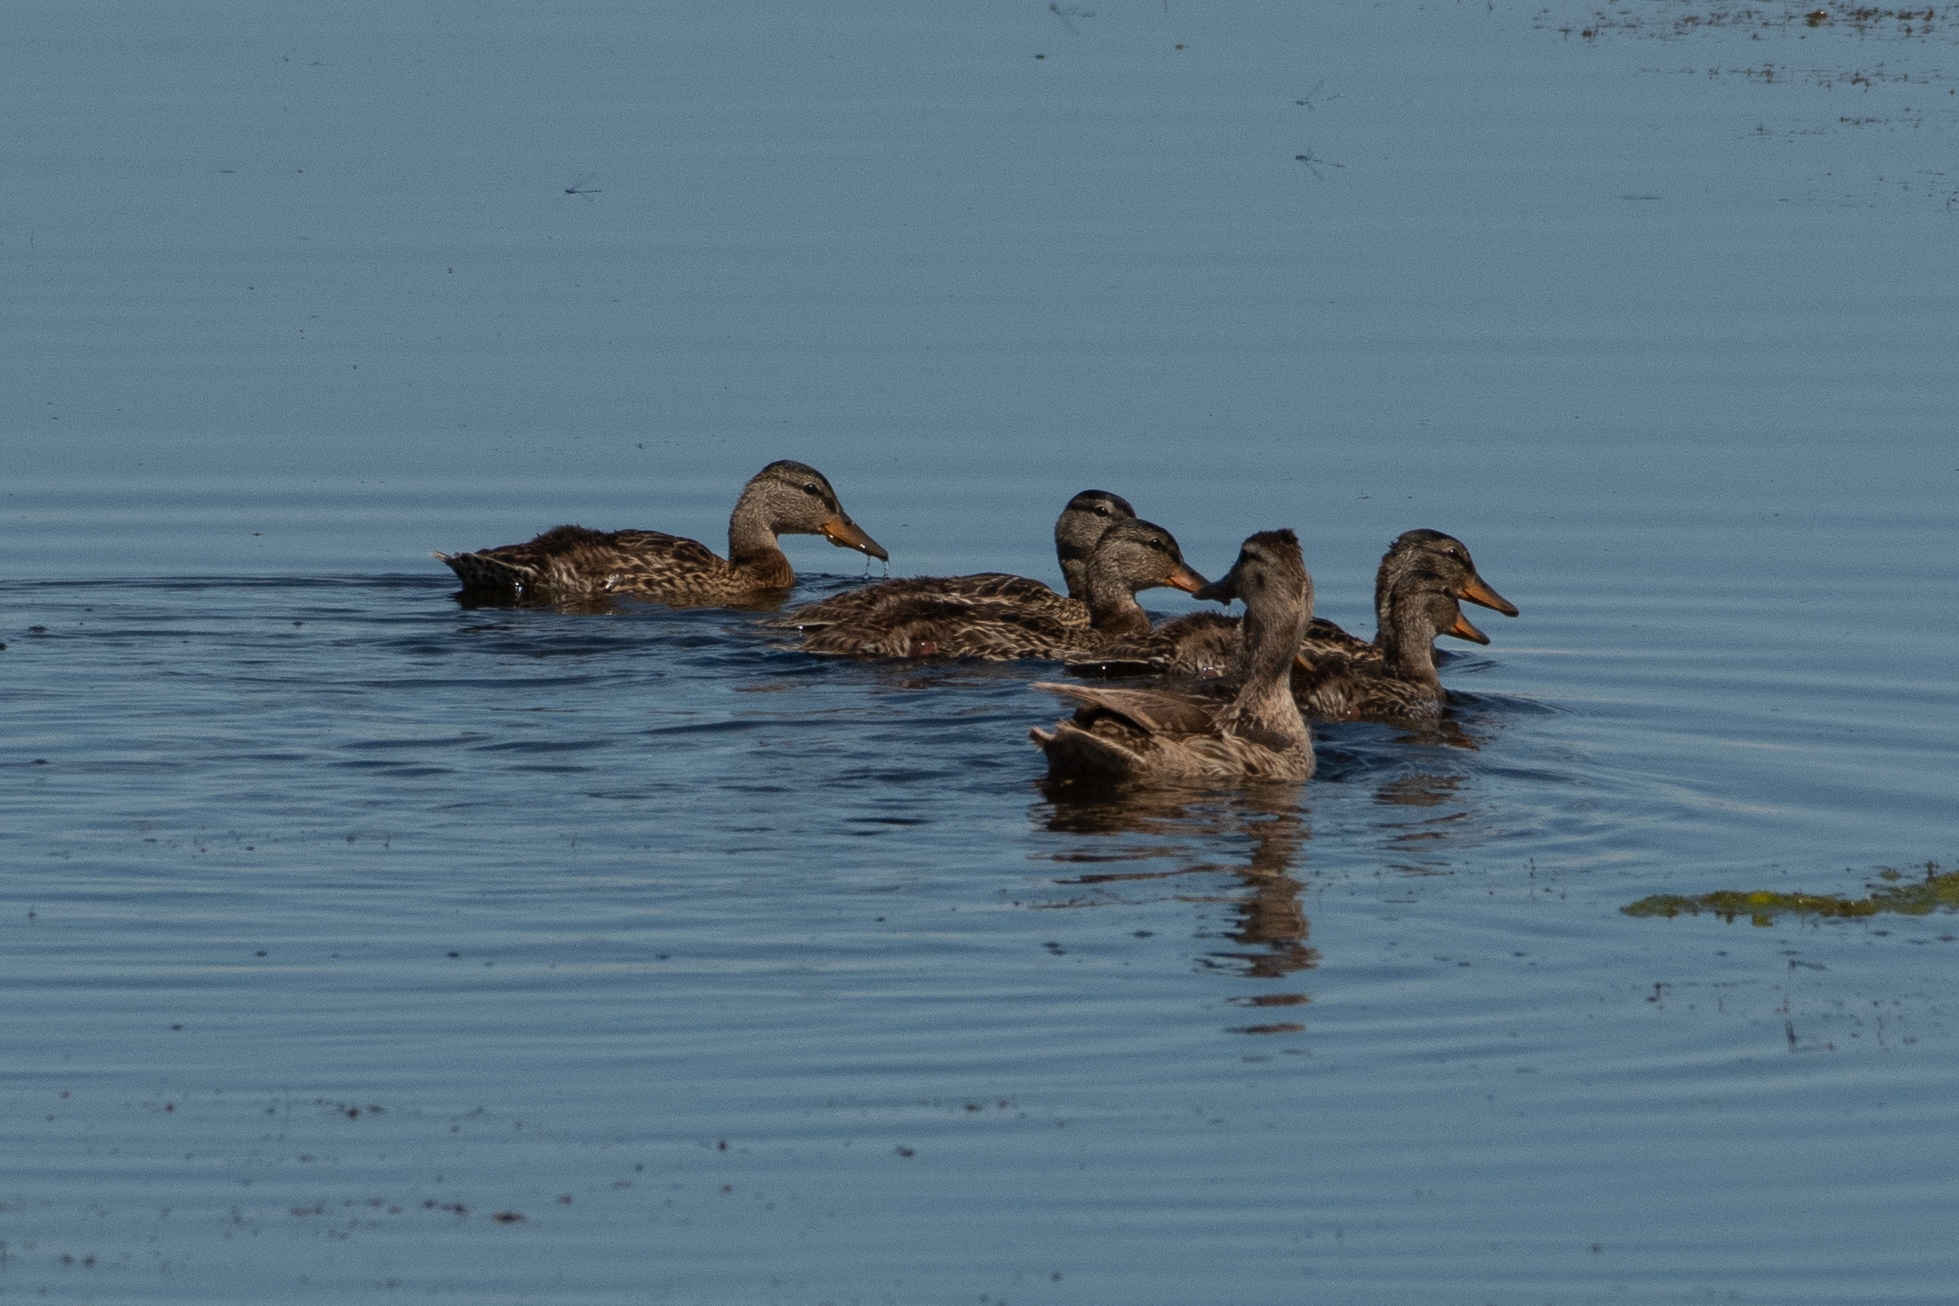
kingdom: Animalia
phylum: Chordata
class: Aves
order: Anseriformes
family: Anatidae
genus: Anas
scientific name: Anas platyrhynchos
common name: Mallard
